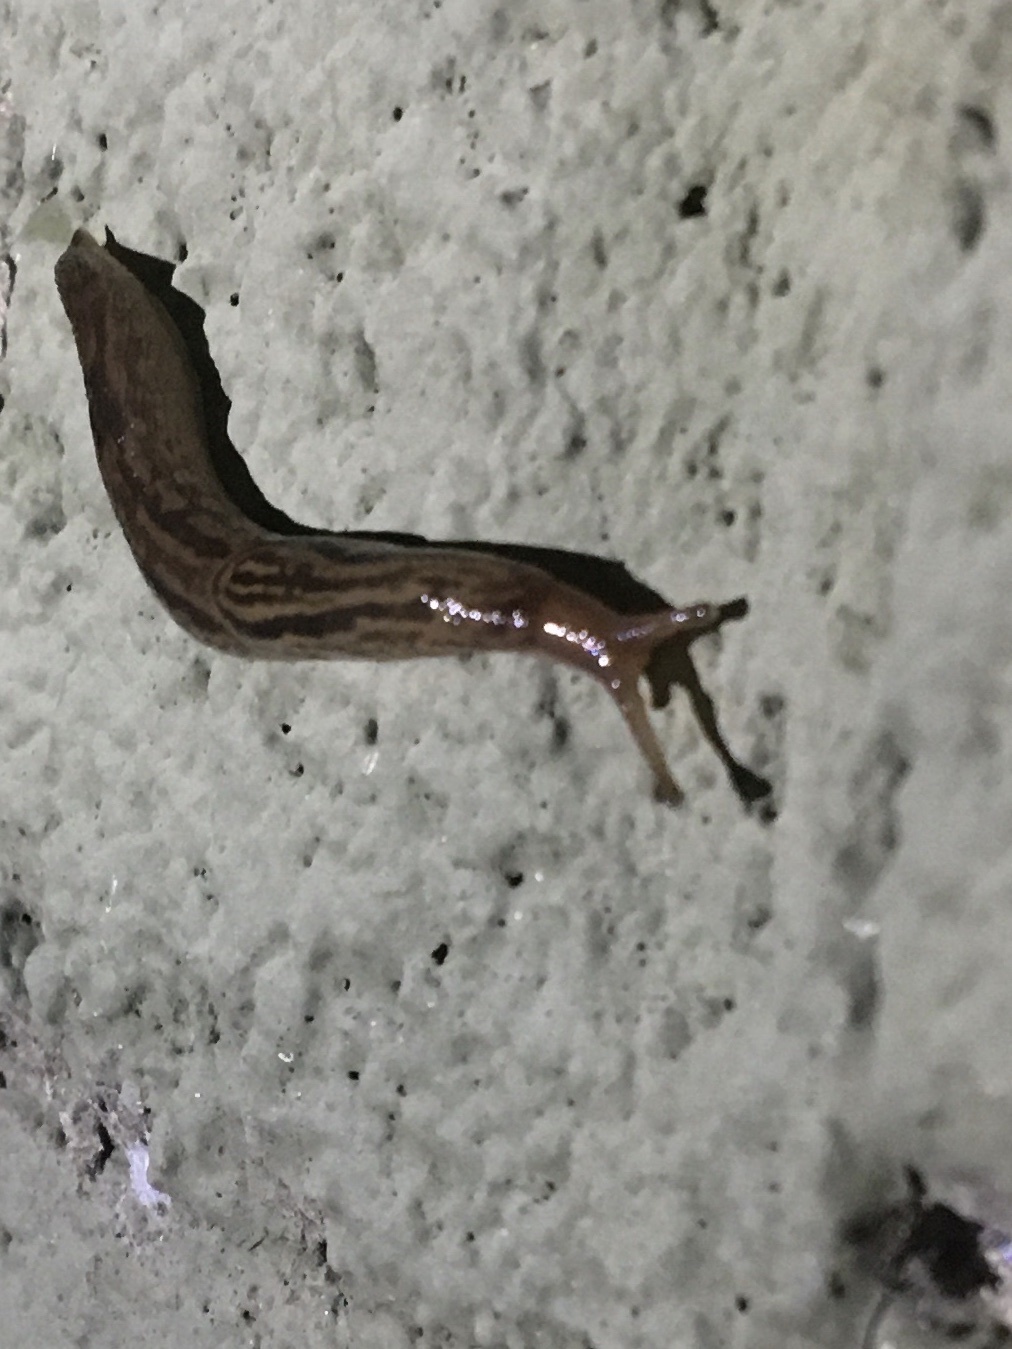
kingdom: Animalia
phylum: Mollusca
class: Gastropoda
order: Stylommatophora
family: Limacidae
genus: Ambigolimax
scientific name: Ambigolimax
